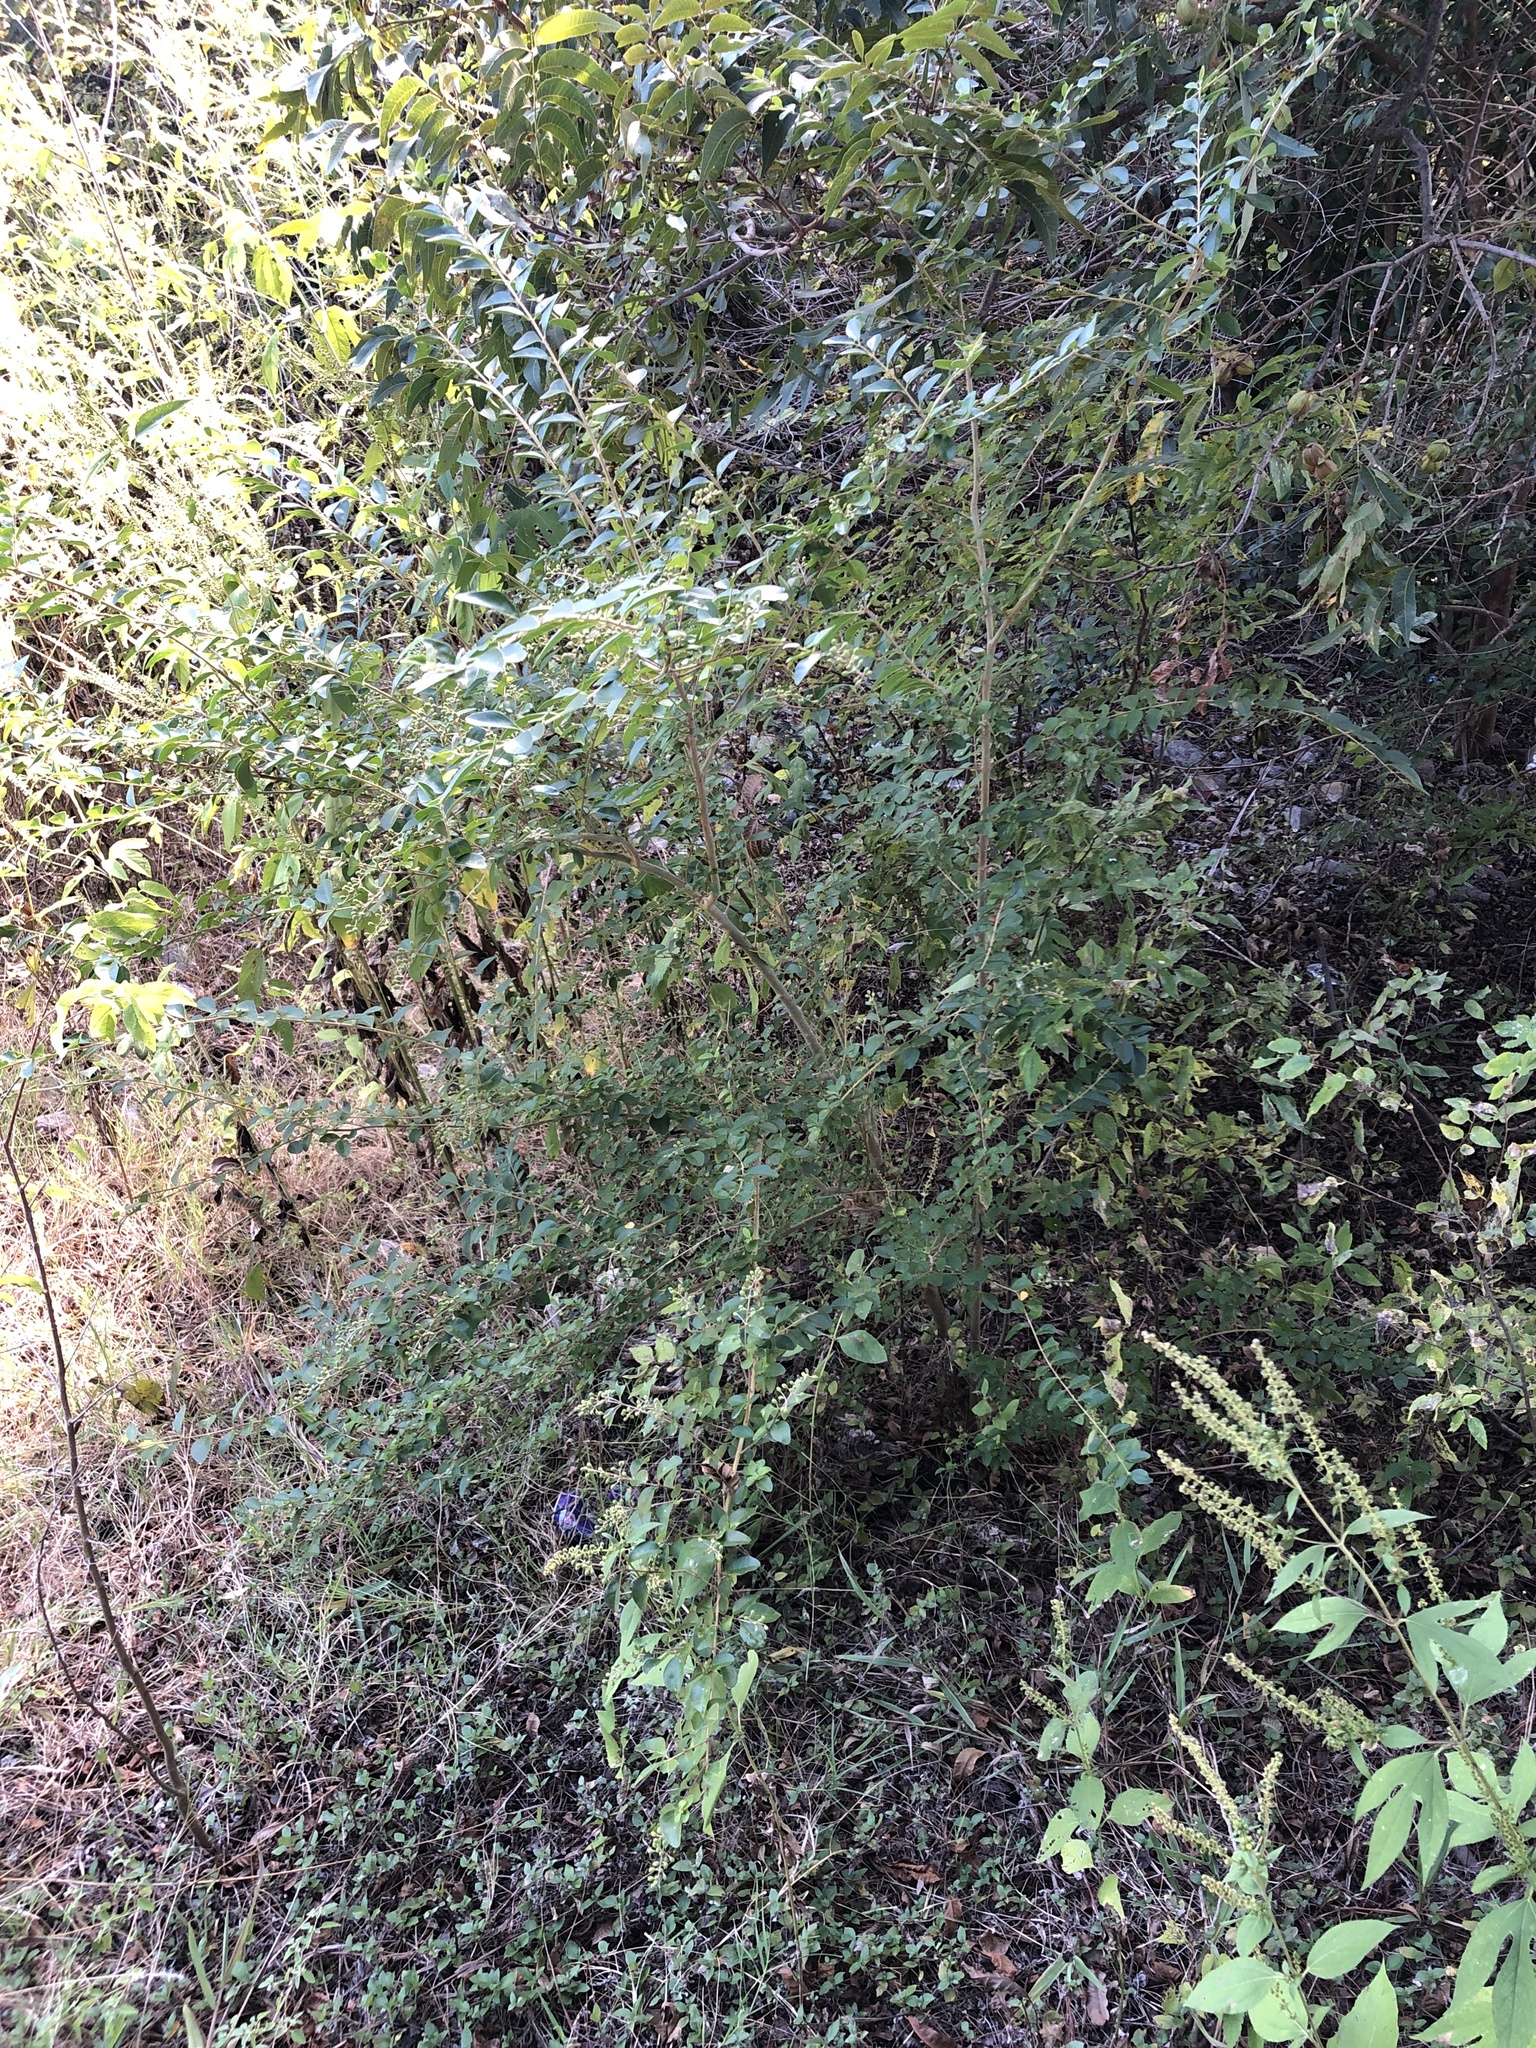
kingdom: Plantae
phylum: Tracheophyta
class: Magnoliopsida
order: Lamiales
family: Oleaceae
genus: Ligustrum
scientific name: Ligustrum sinense
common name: Chinese privet
